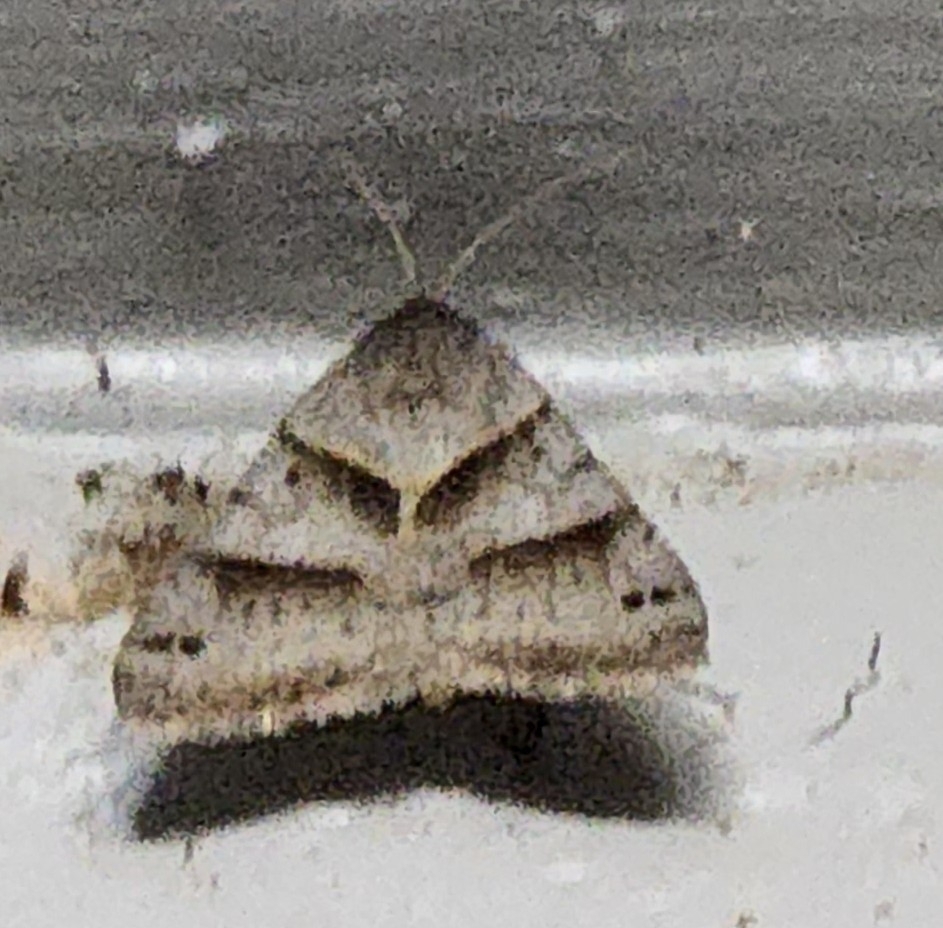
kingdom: Animalia
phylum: Arthropoda
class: Insecta
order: Lepidoptera
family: Erebidae
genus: Caenurgina
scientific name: Caenurgina erechtea
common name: Forage looper moth
